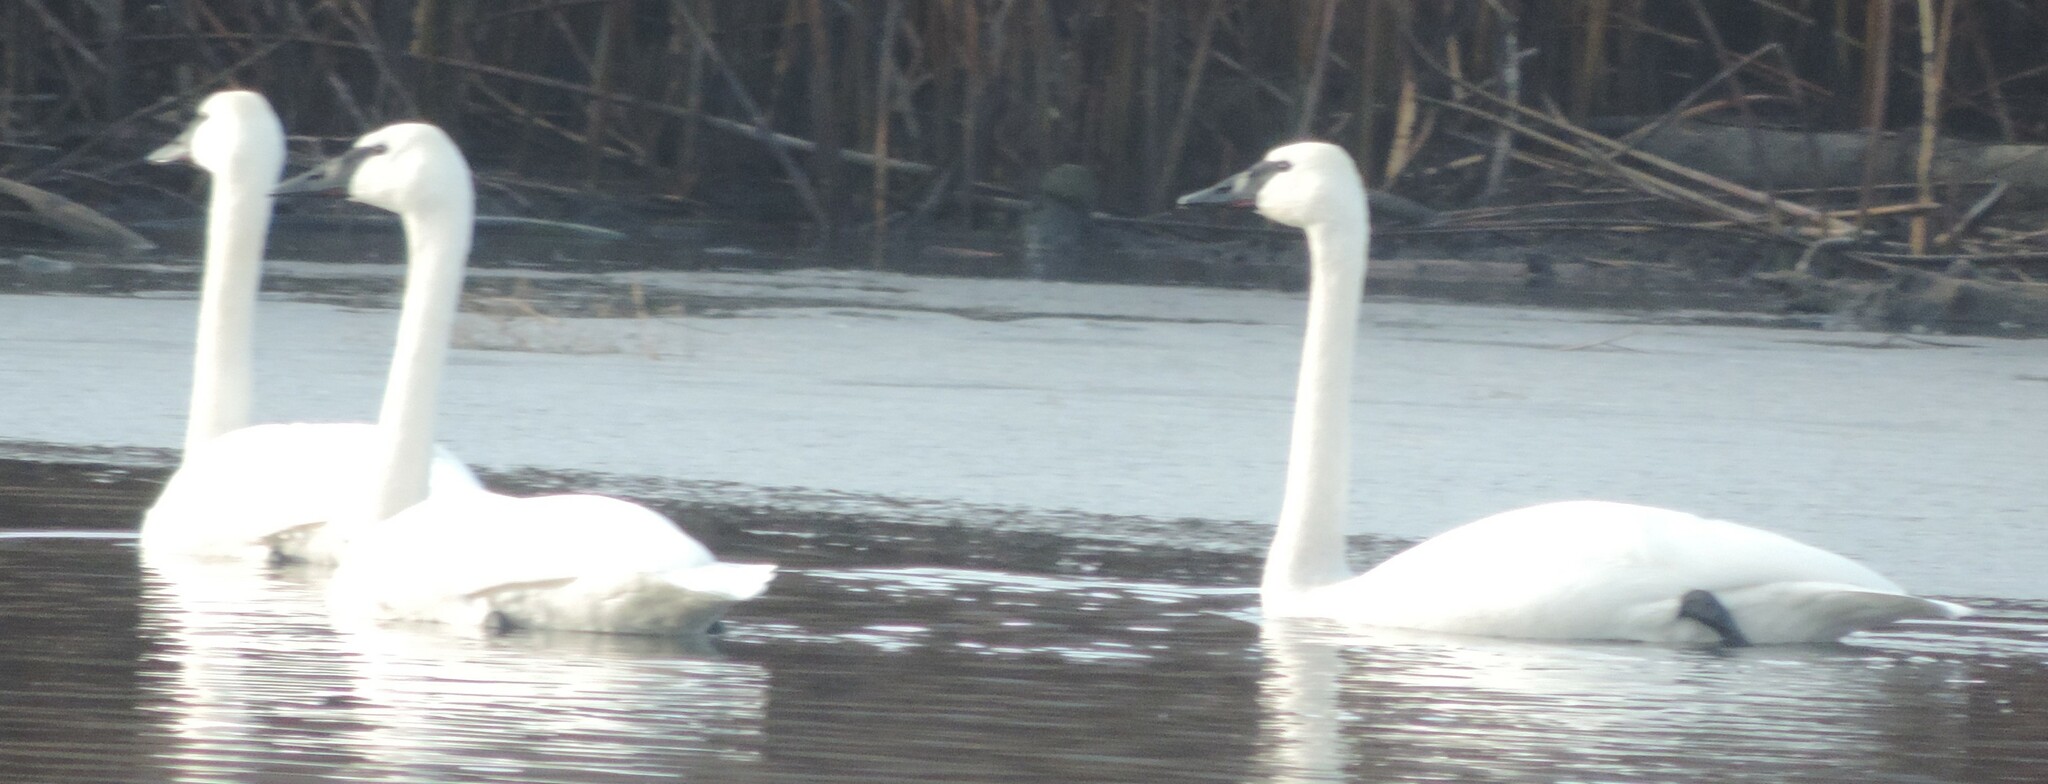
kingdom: Animalia
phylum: Chordata
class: Aves
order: Anseriformes
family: Anatidae
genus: Cygnus
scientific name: Cygnus buccinator
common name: Trumpeter swan
